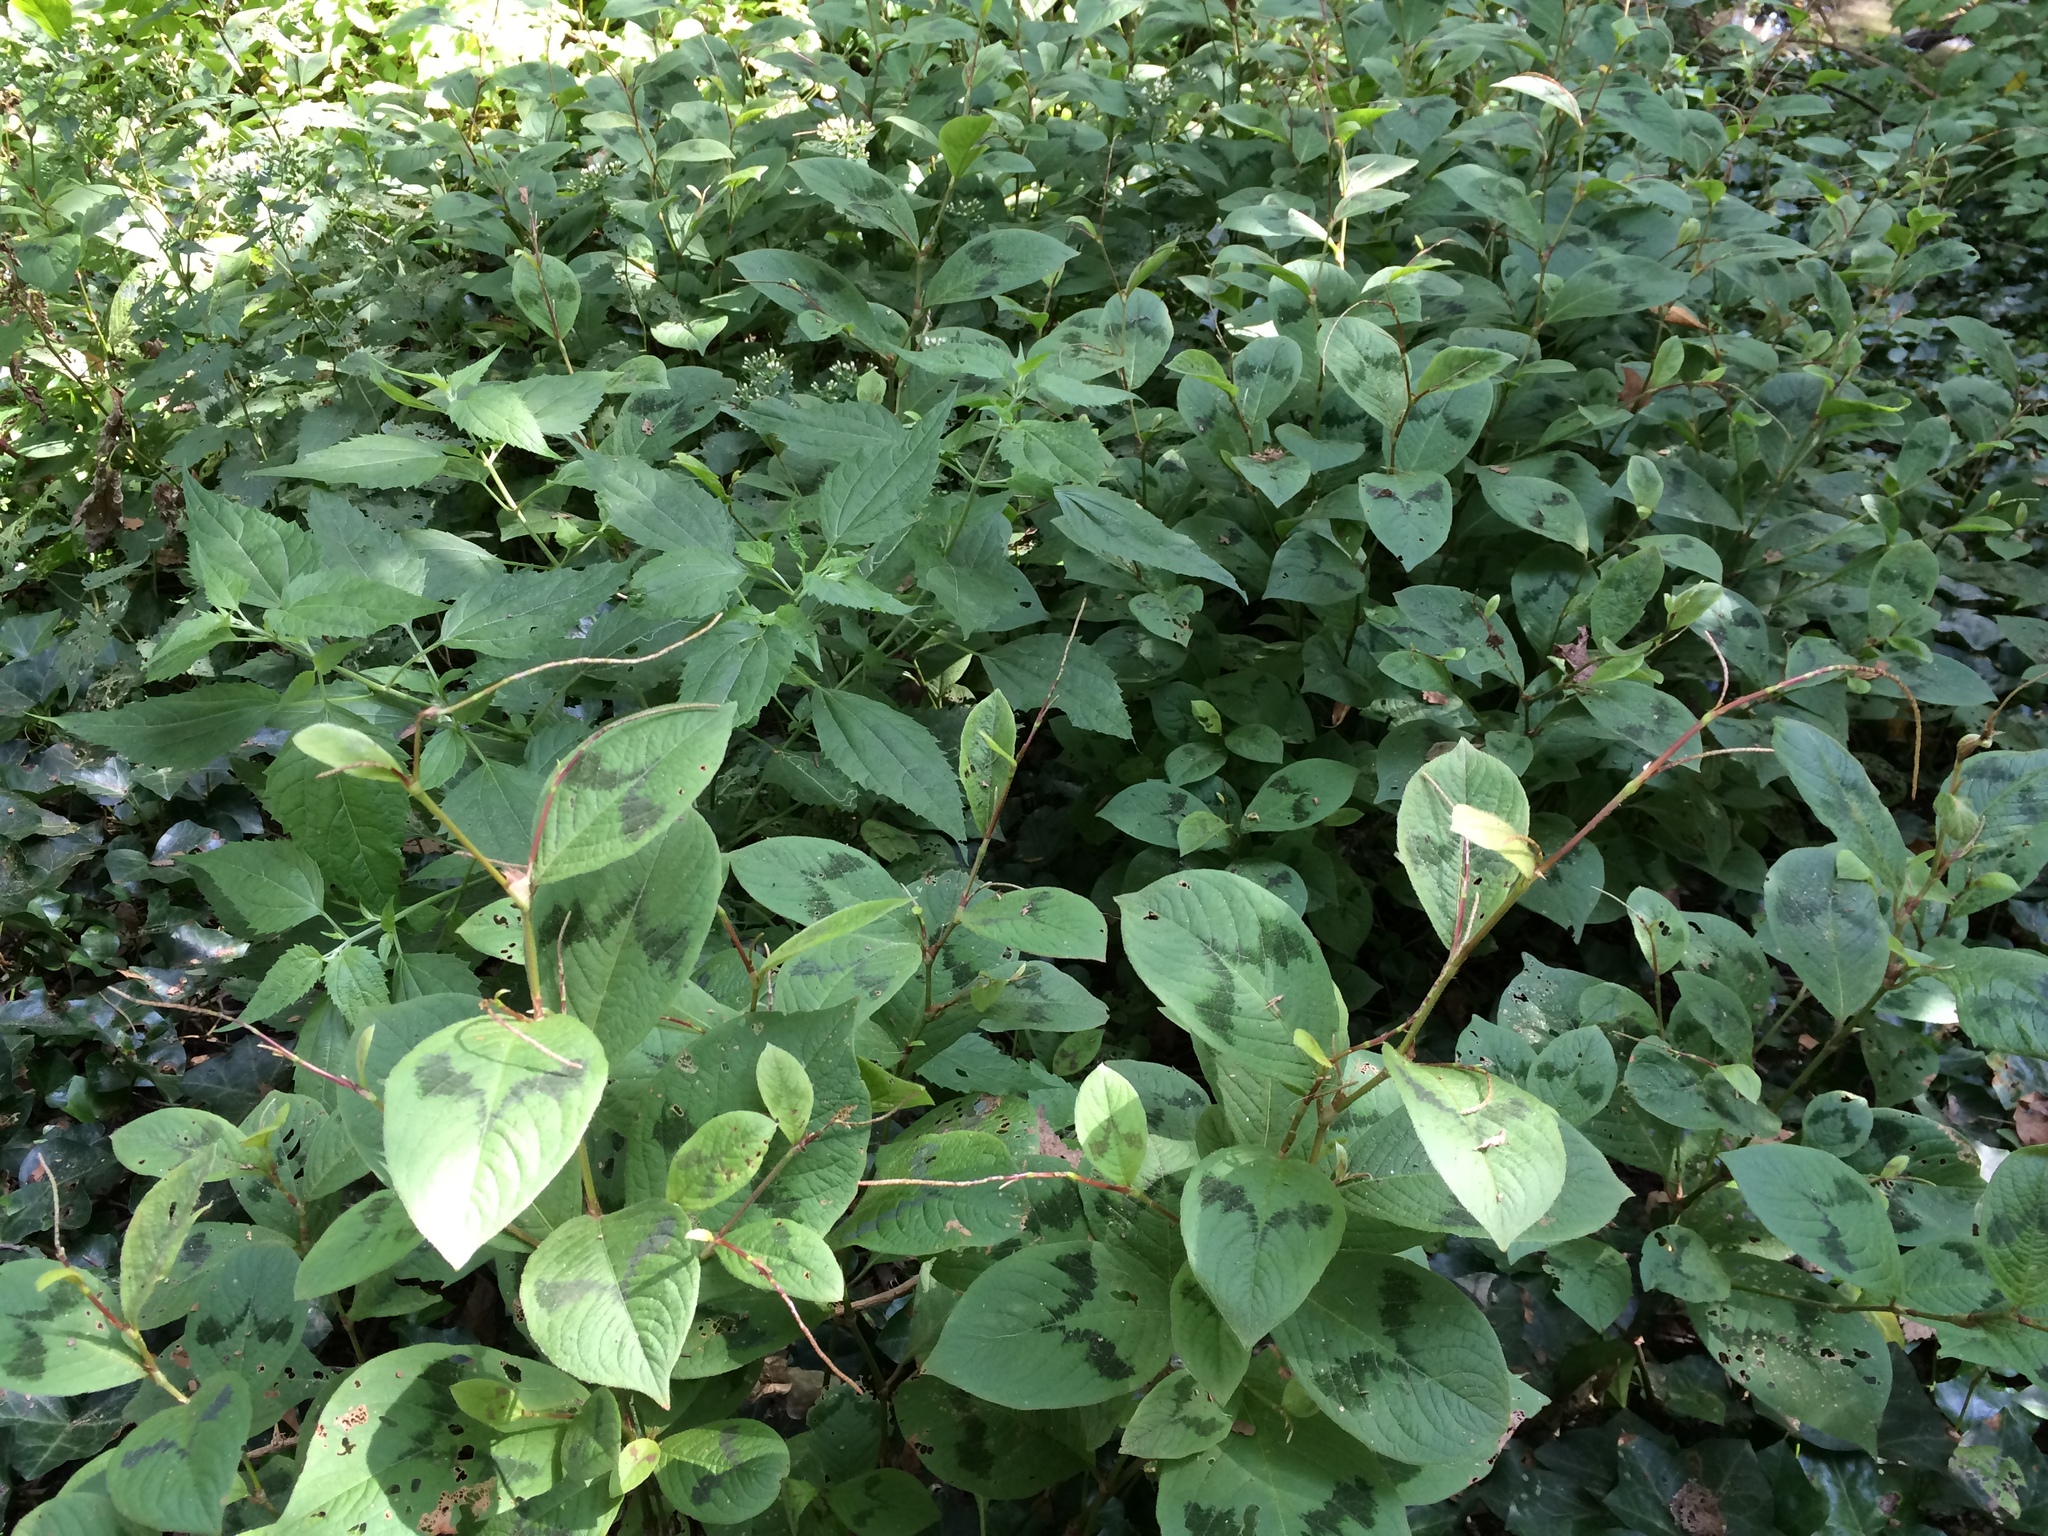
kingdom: Plantae
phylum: Tracheophyta
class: Magnoliopsida
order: Caryophyllales
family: Polygonaceae
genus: Persicaria
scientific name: Persicaria filiformis
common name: Asian jumpseed
